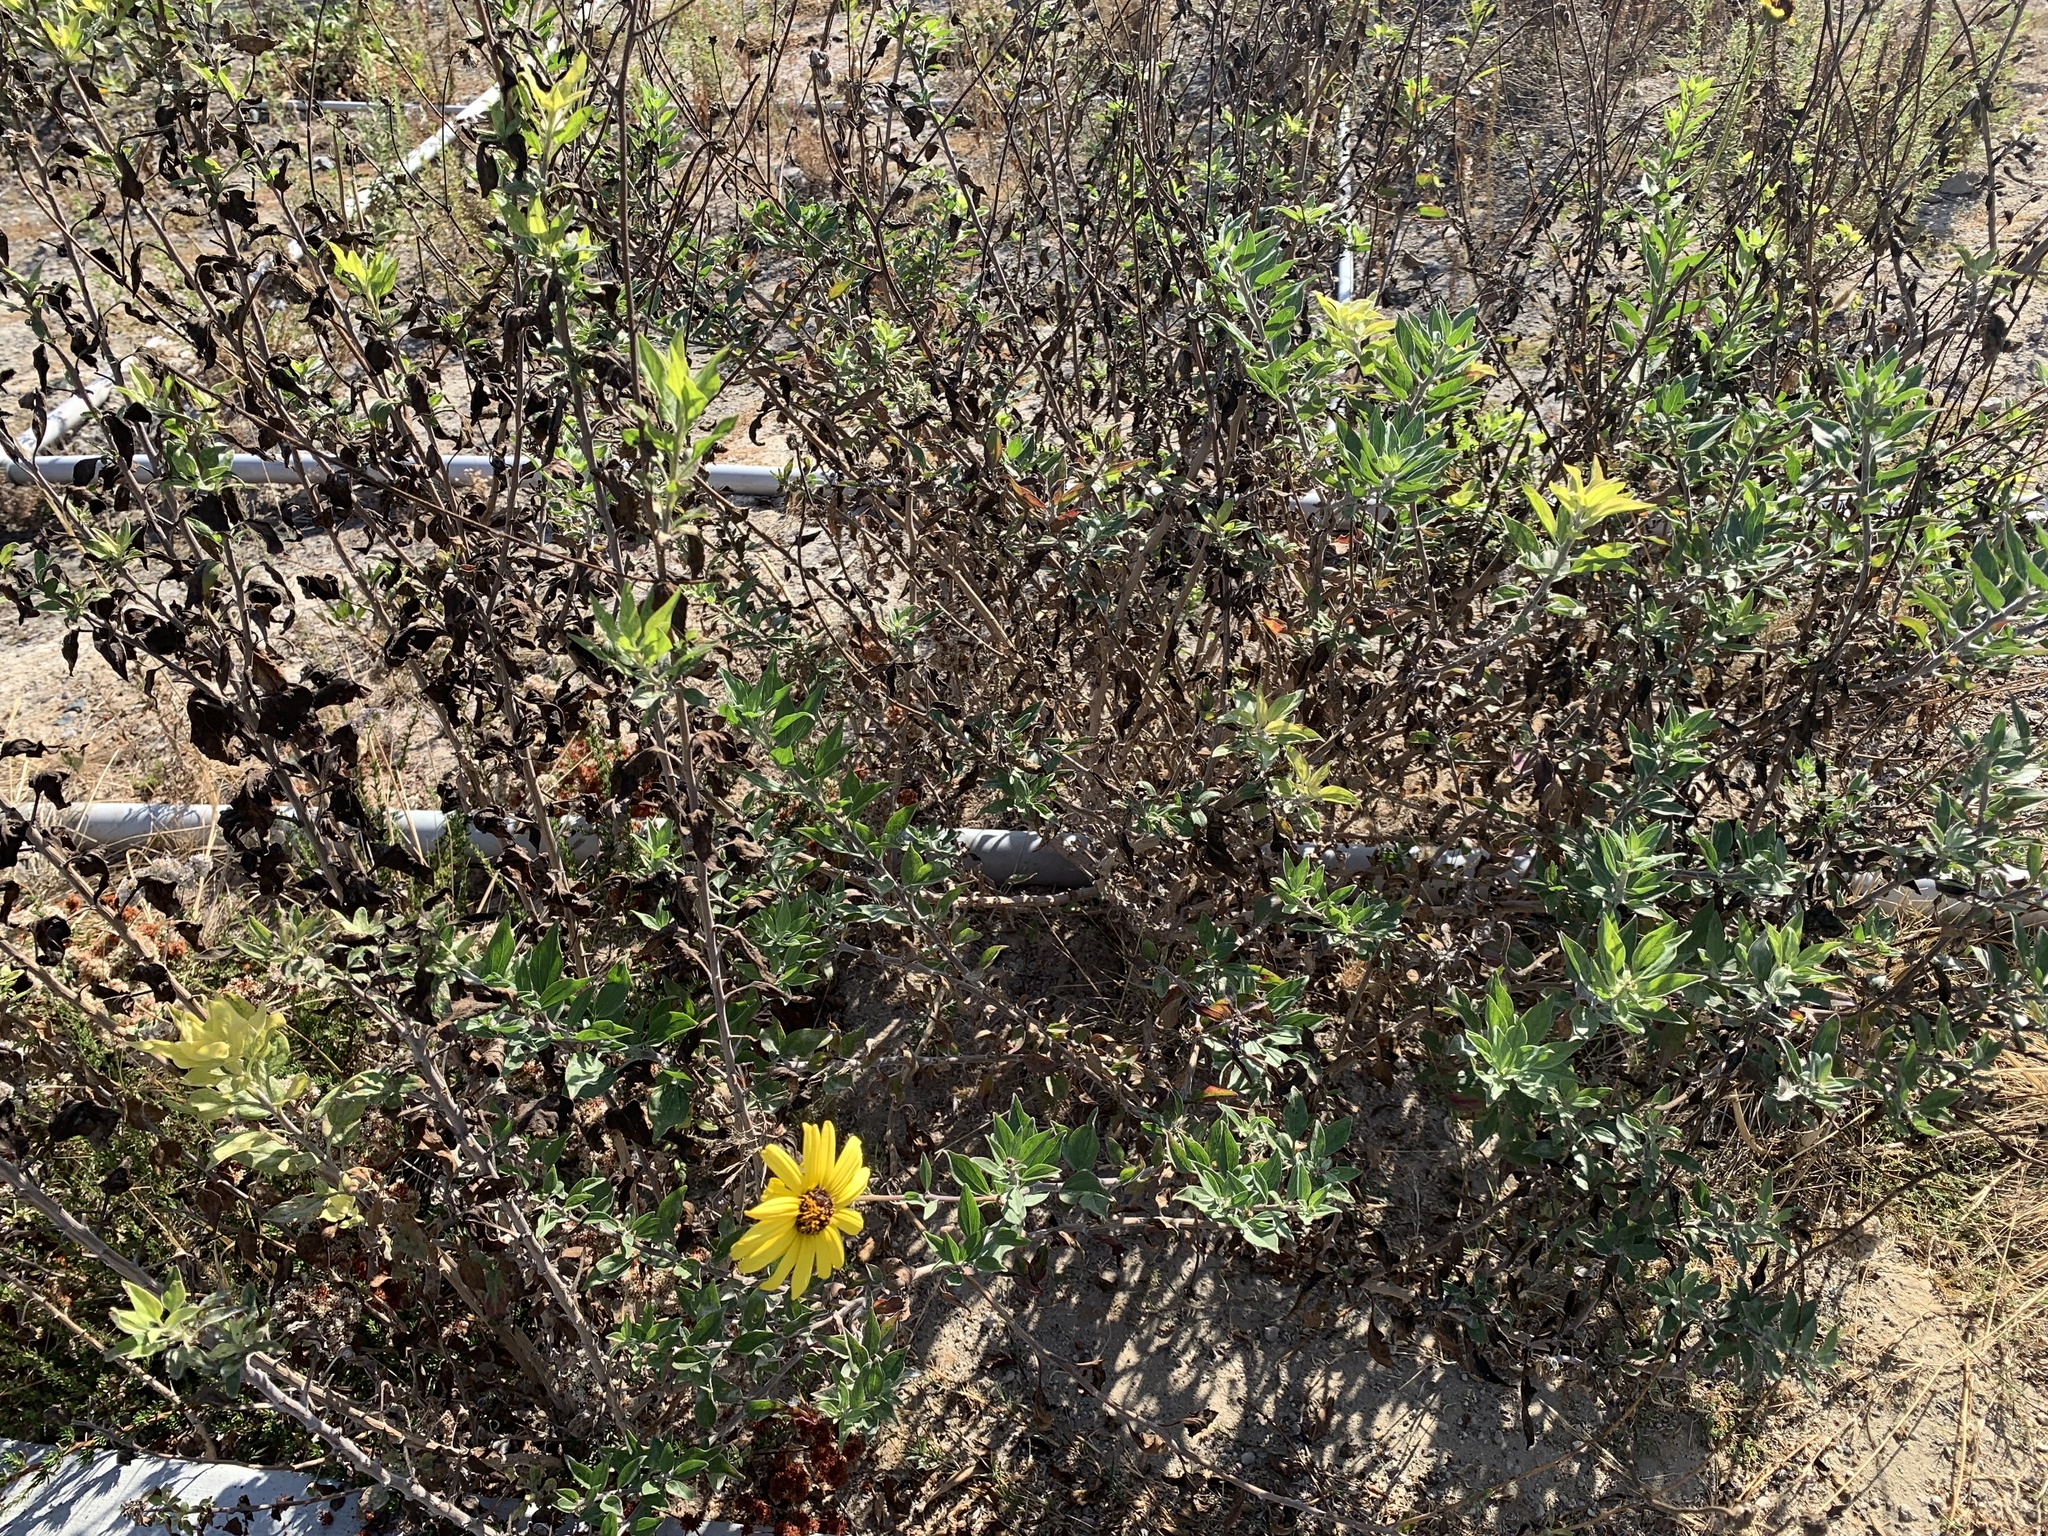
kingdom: Plantae
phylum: Tracheophyta
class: Magnoliopsida
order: Asterales
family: Asteraceae
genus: Encelia
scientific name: Encelia californica
